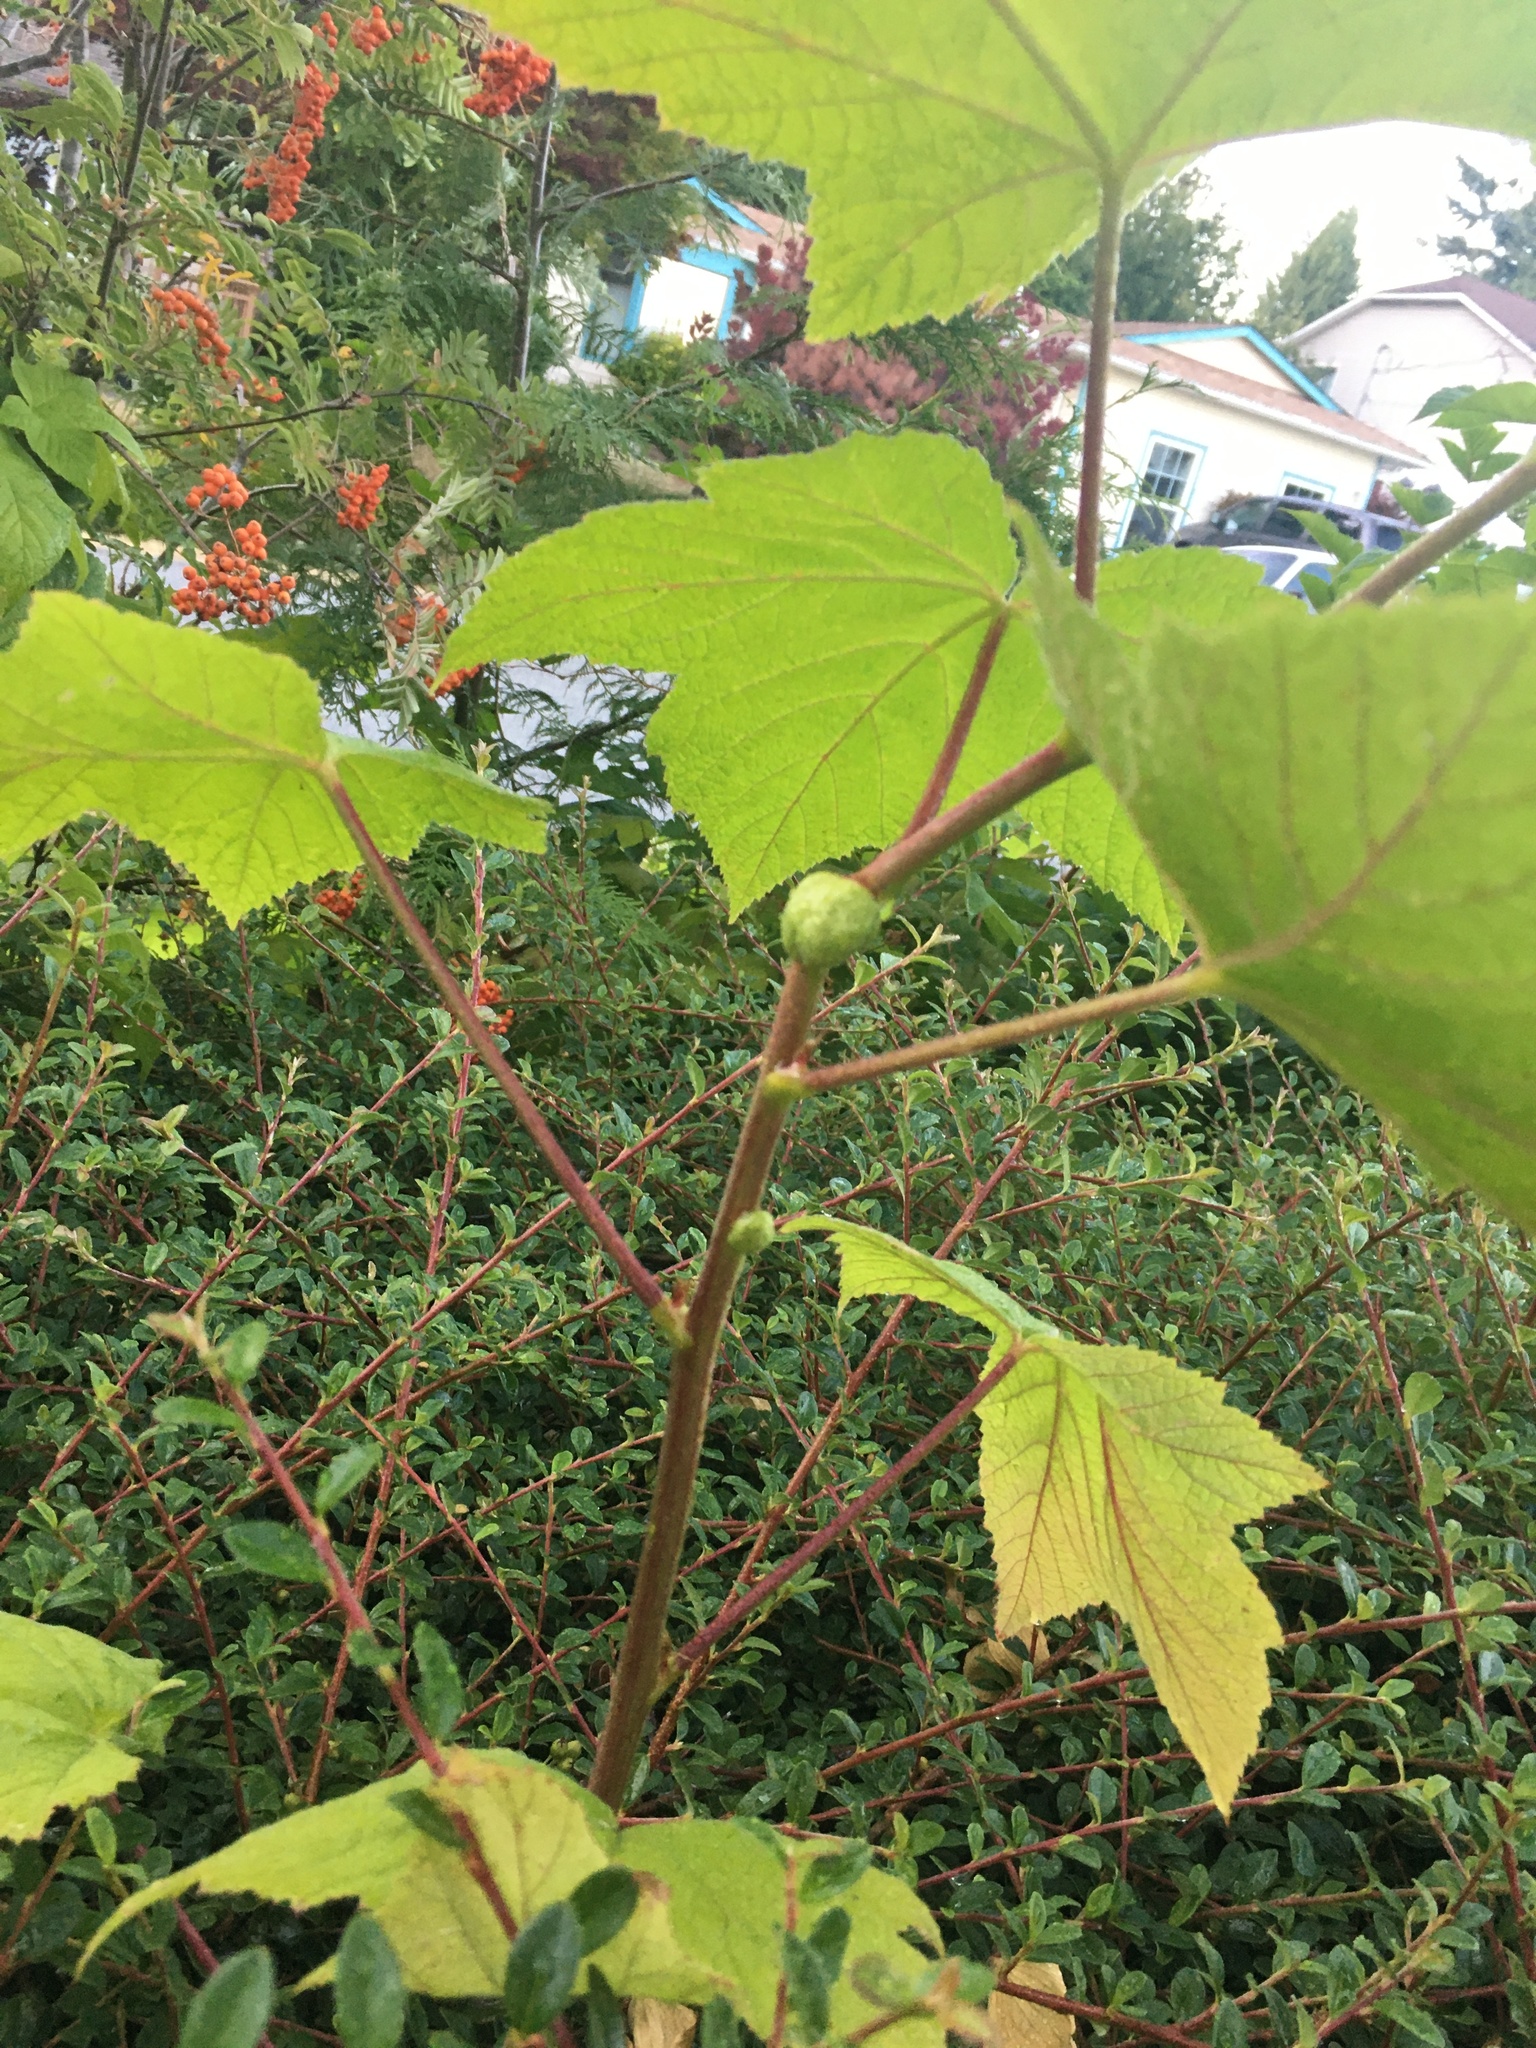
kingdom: Animalia
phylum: Arthropoda
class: Insecta
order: Hymenoptera
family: Cynipidae
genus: Diastrophus
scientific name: Diastrophus
